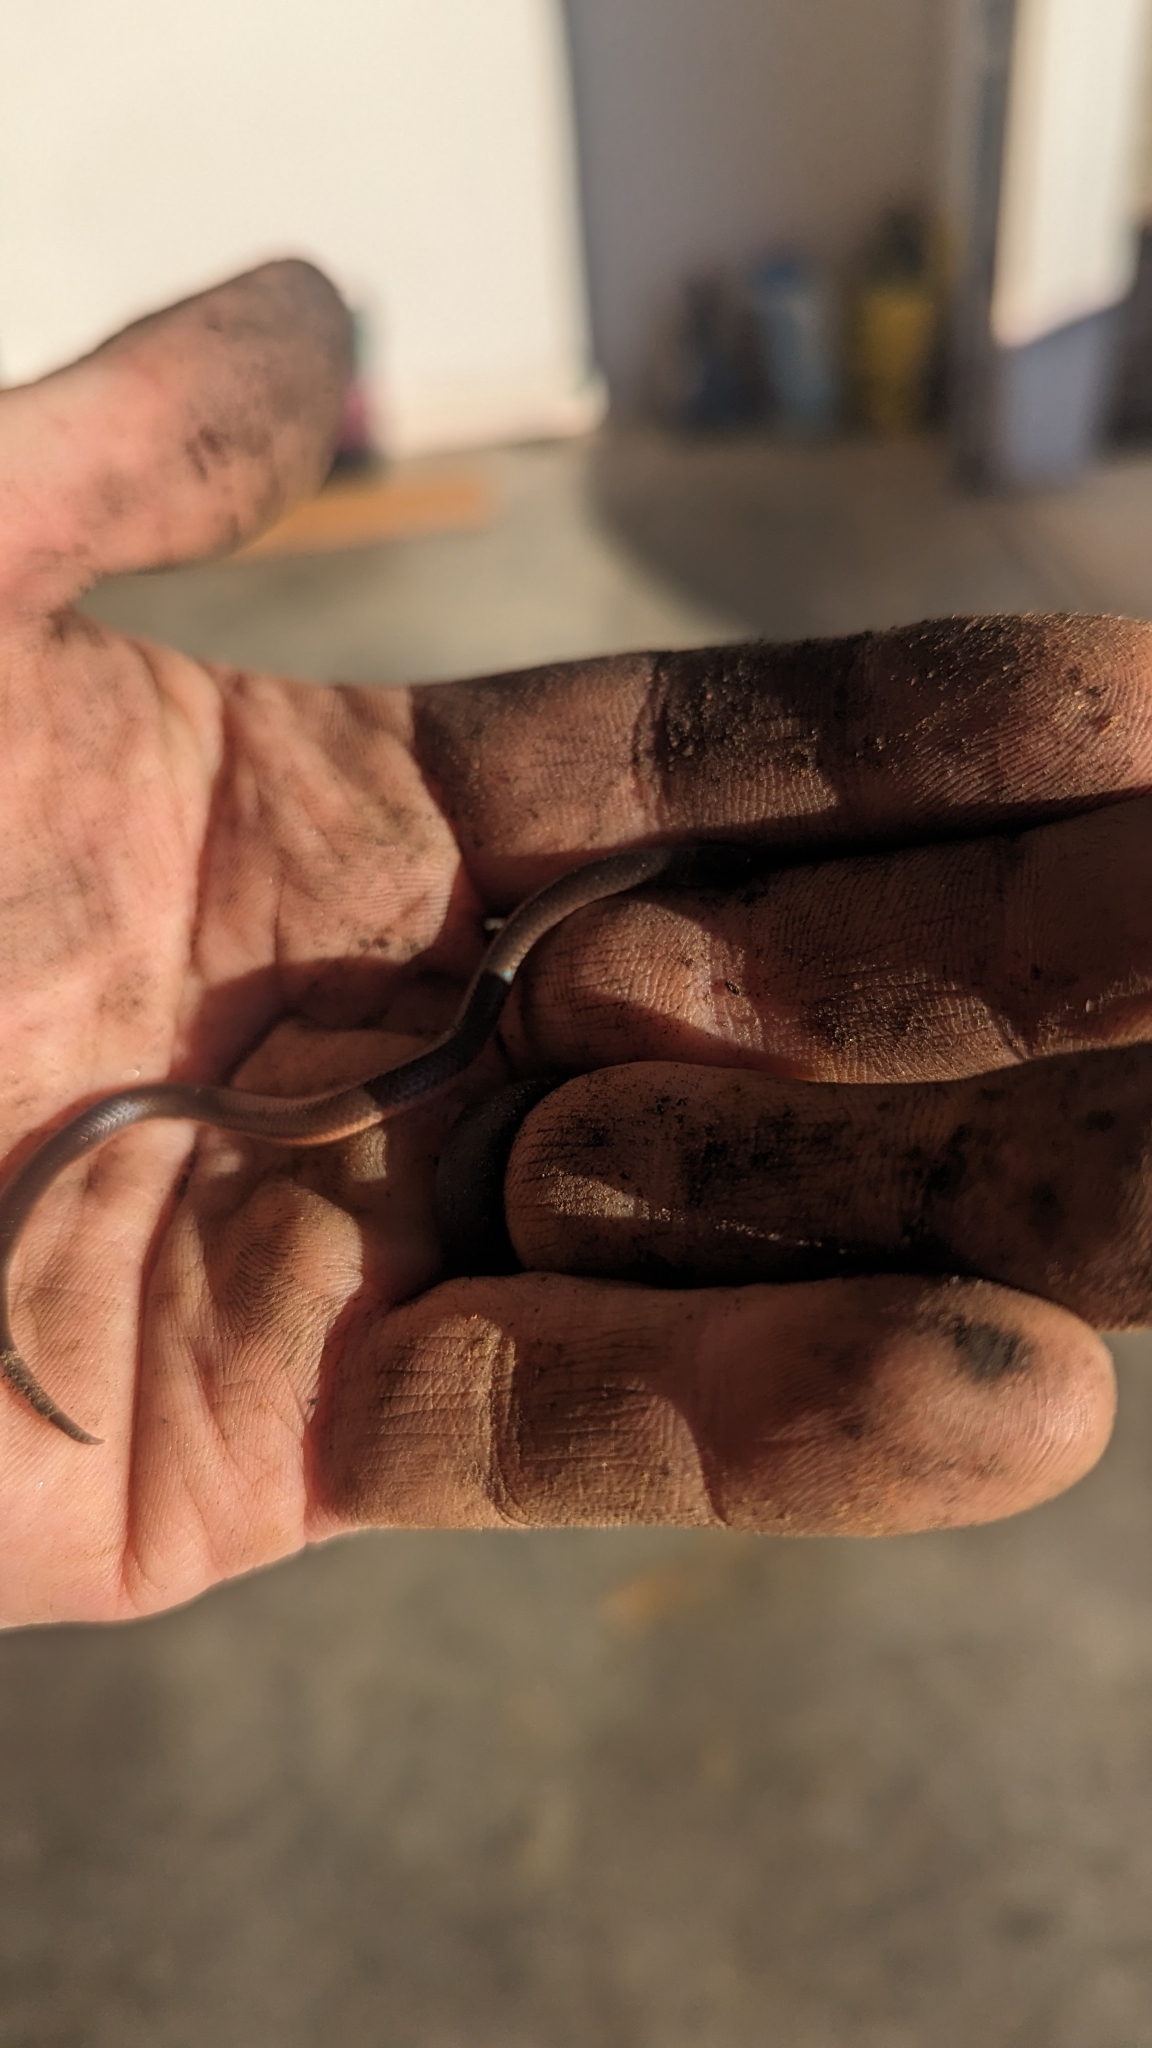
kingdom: Animalia
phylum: Chordata
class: Squamata
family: Colubridae
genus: Carphophis
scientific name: Carphophis amoenus
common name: Eastern worm snake
